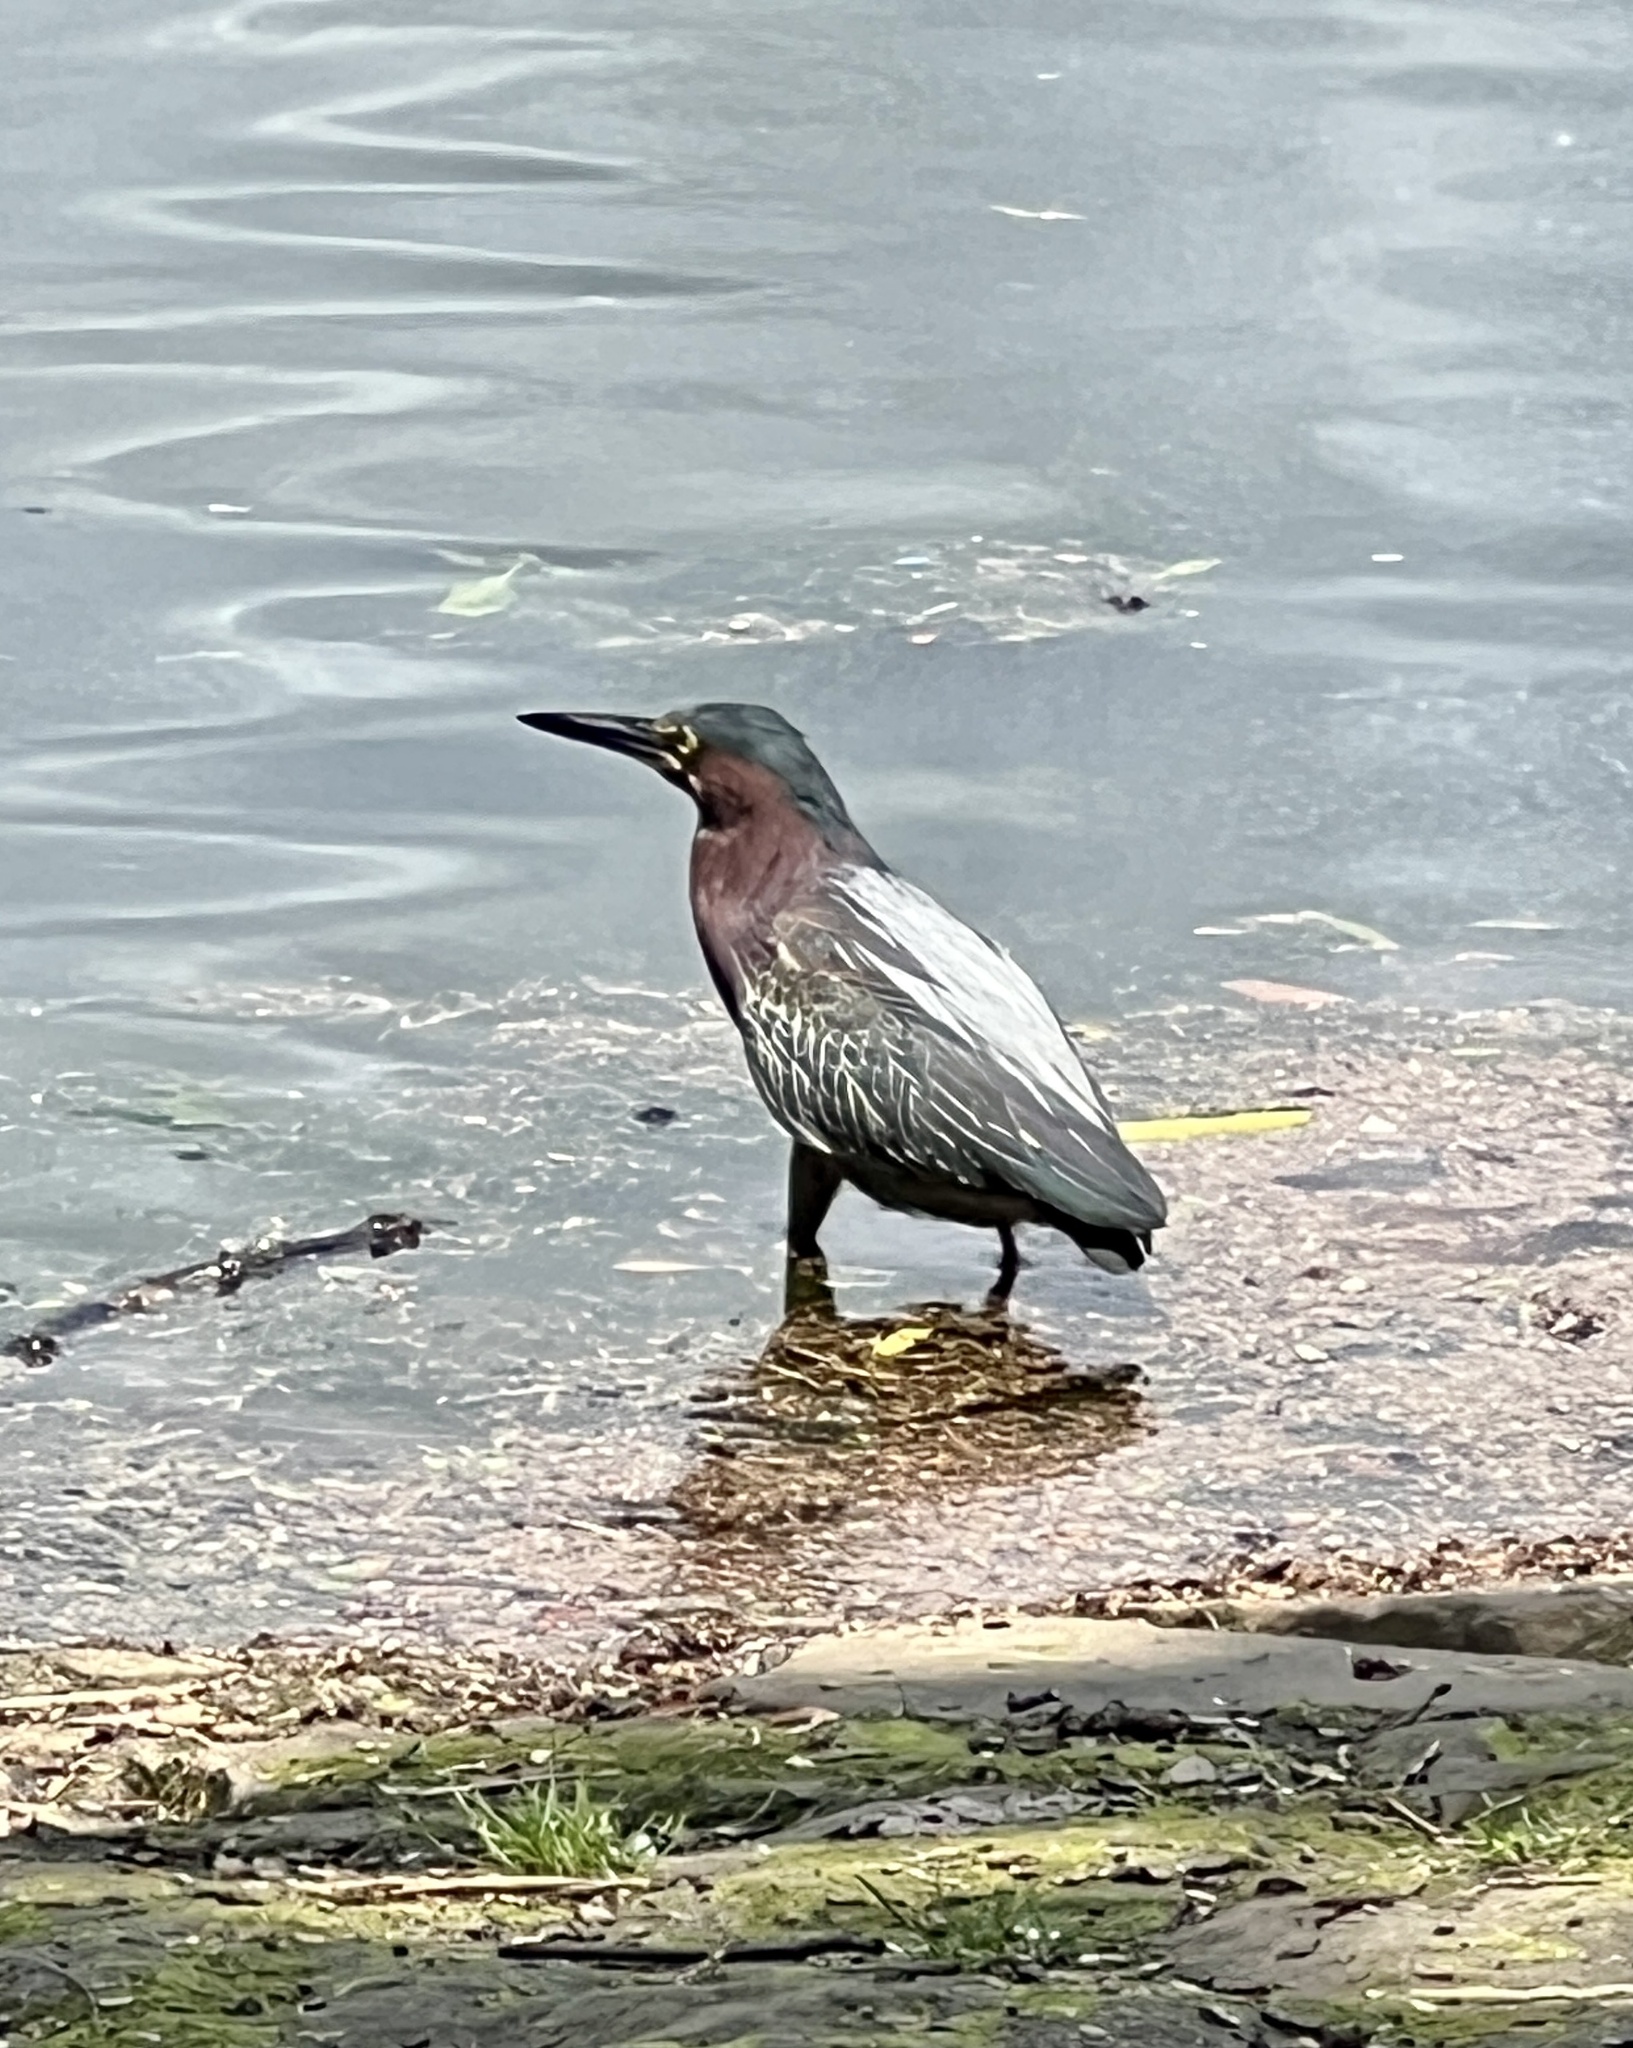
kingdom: Animalia
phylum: Chordata
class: Aves
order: Pelecaniformes
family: Ardeidae
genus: Butorides
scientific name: Butorides virescens
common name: Green heron
